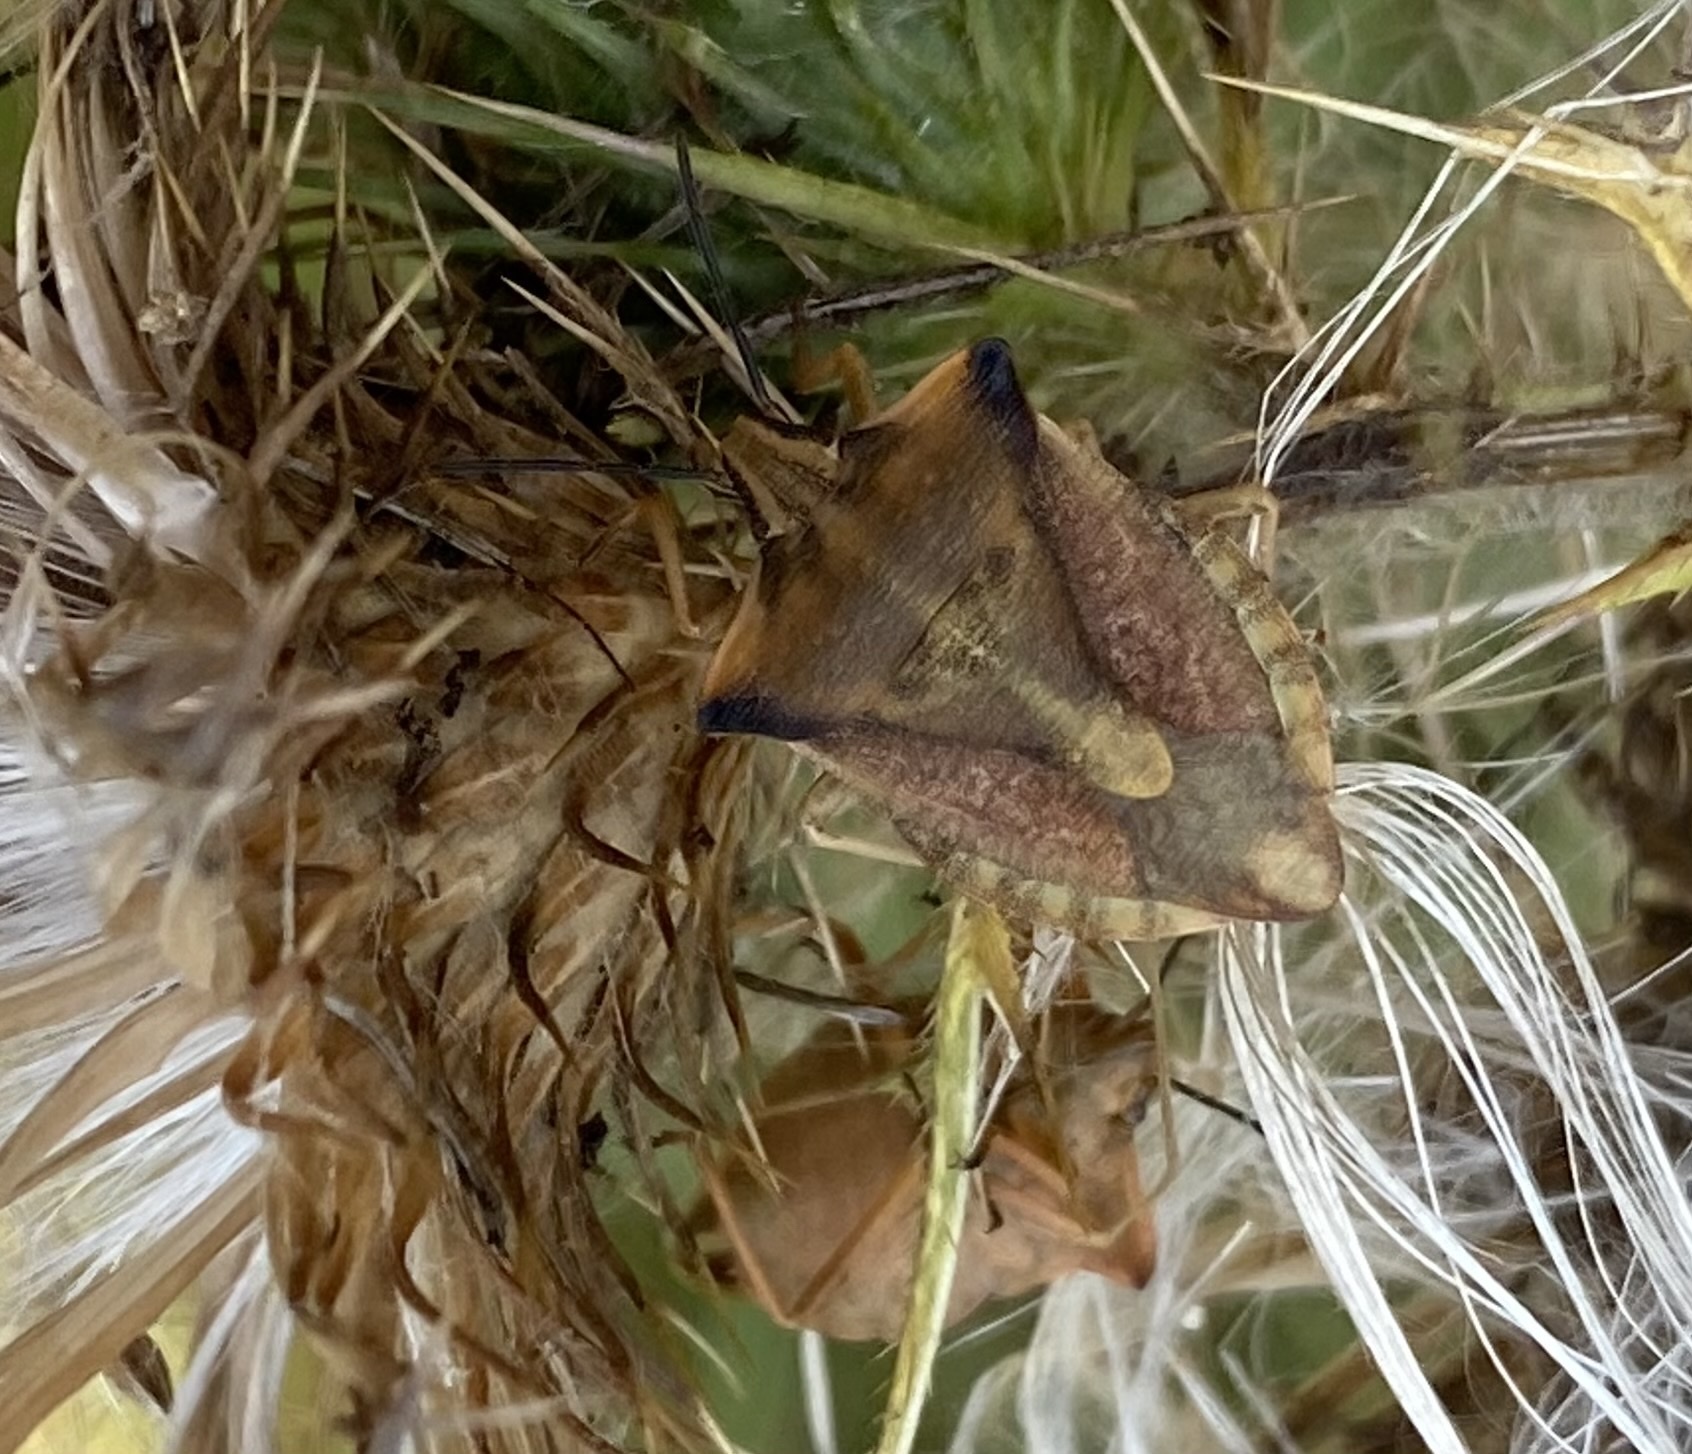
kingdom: Animalia
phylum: Arthropoda
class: Insecta
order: Hemiptera
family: Pentatomidae
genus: Carpocoris
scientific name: Carpocoris fuscispinus
